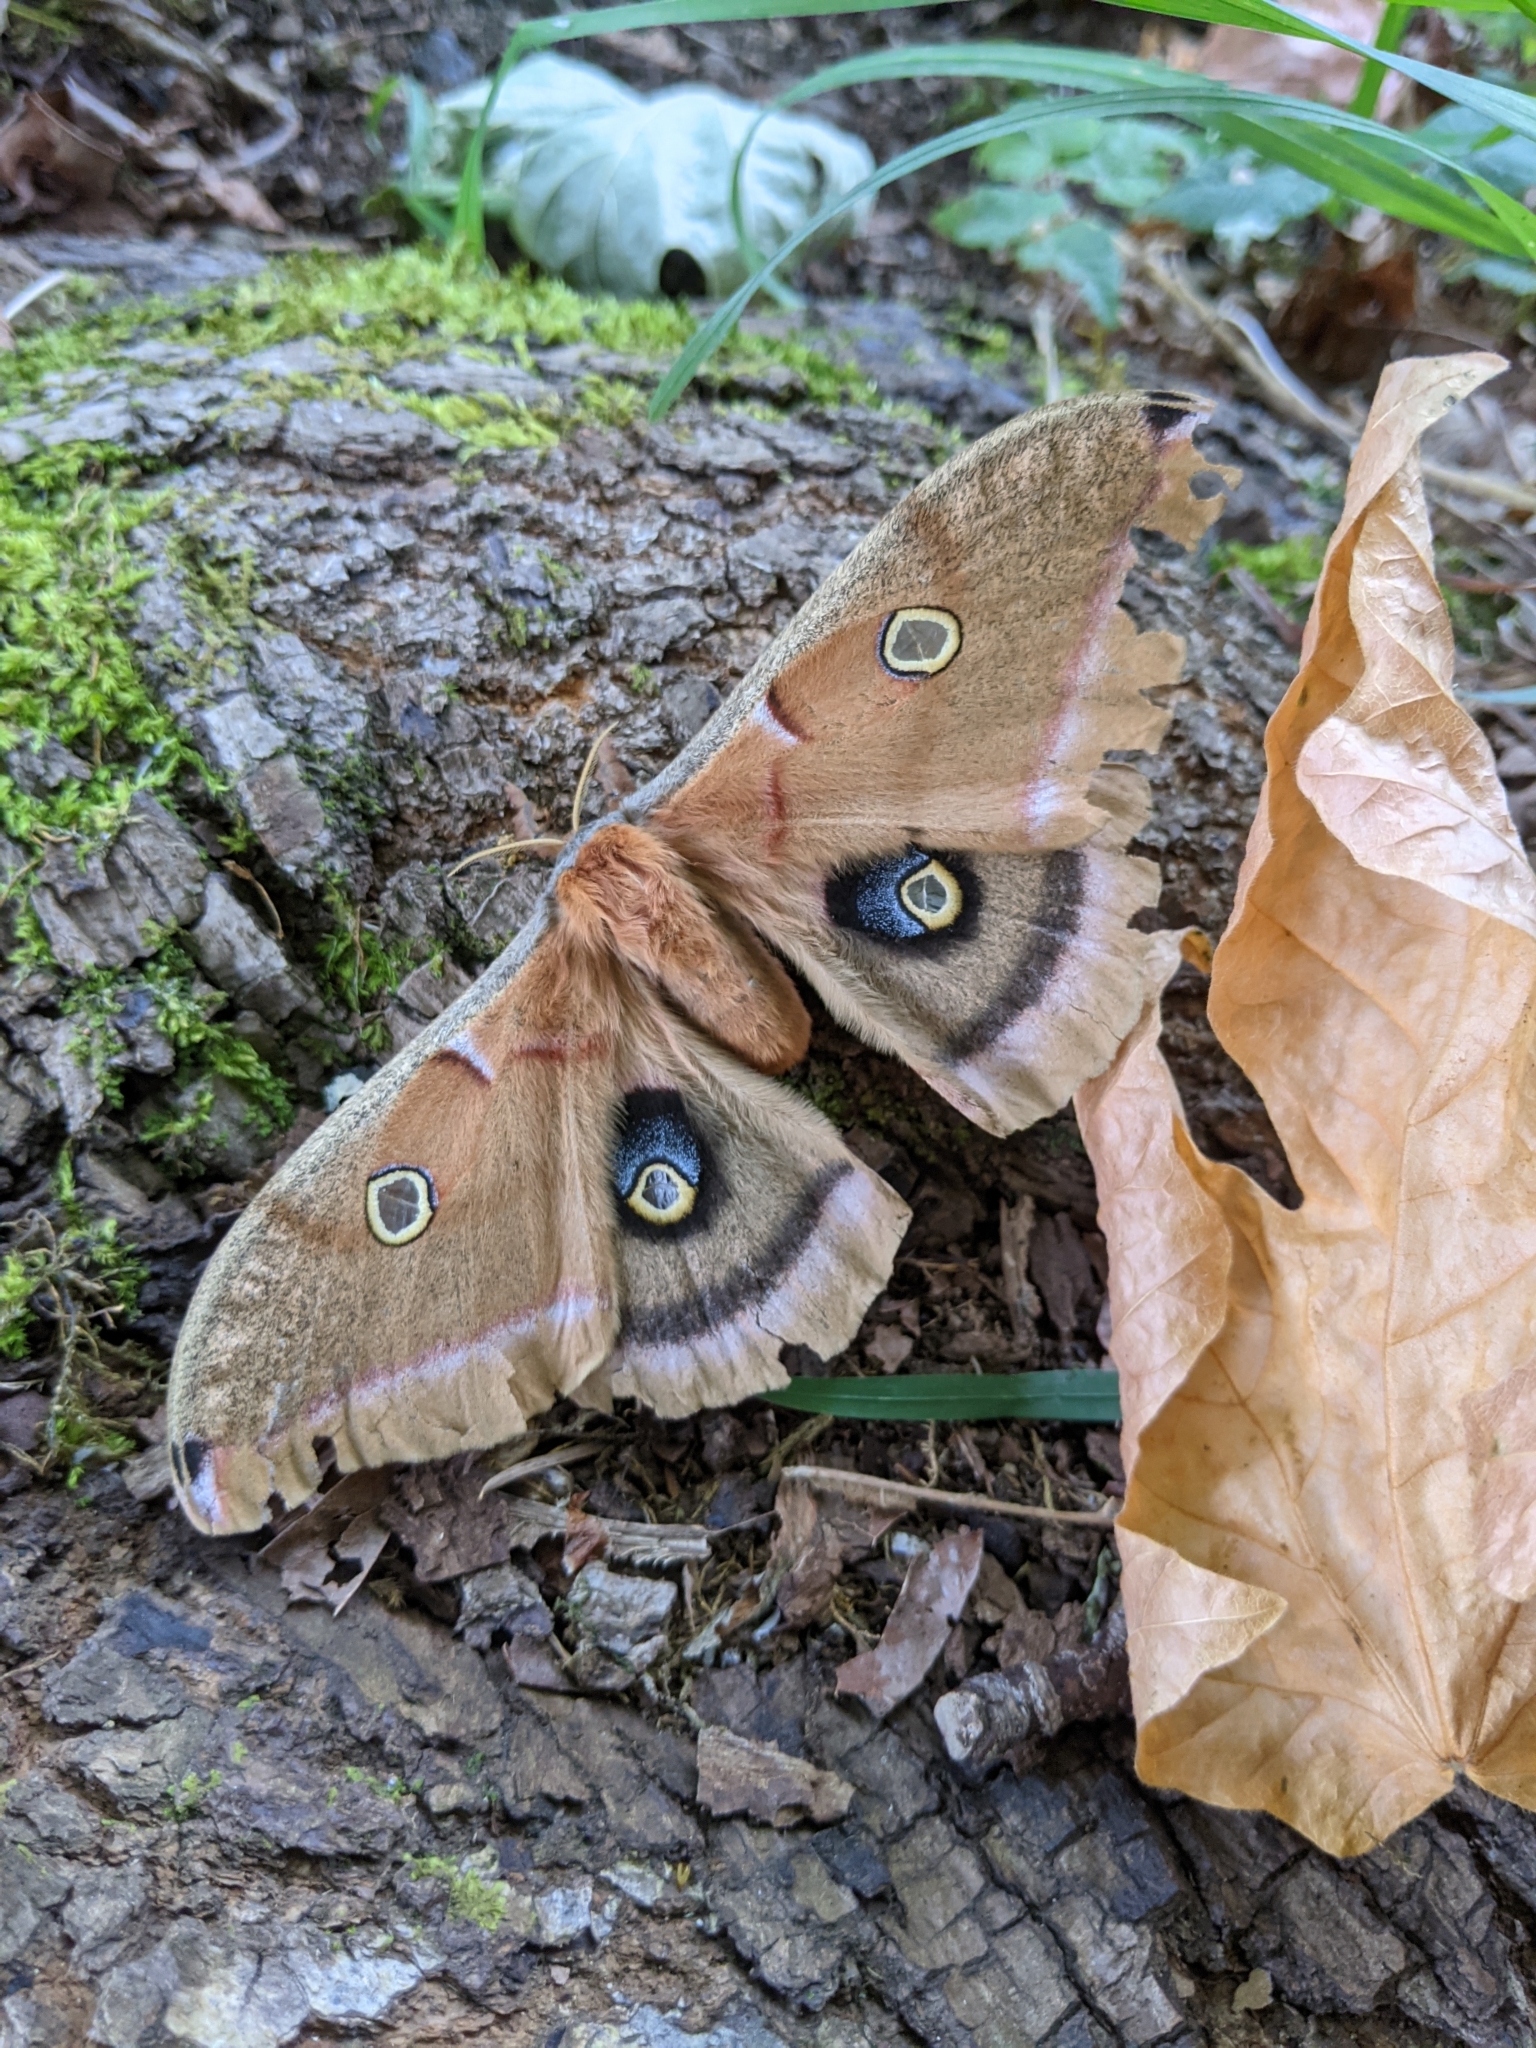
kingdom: Animalia
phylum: Arthropoda
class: Insecta
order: Lepidoptera
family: Saturniidae
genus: Antheraea
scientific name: Antheraea polyphemus
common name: Polyphemus moth
